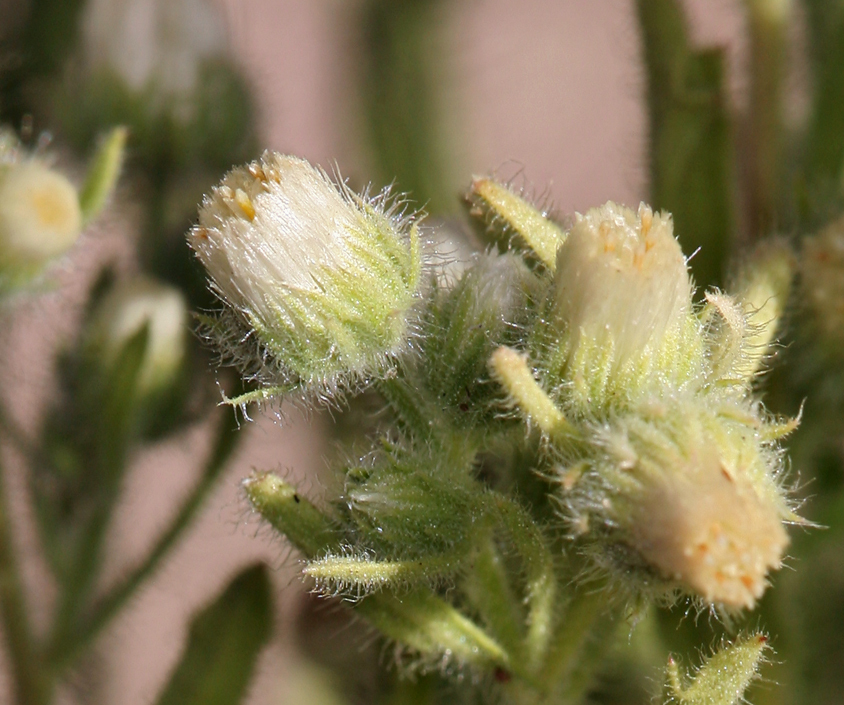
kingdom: Plantae
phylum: Tracheophyta
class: Magnoliopsida
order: Asterales
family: Asteraceae
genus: Laennecia
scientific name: Laennecia coulteri
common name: Coulter's woolwort
